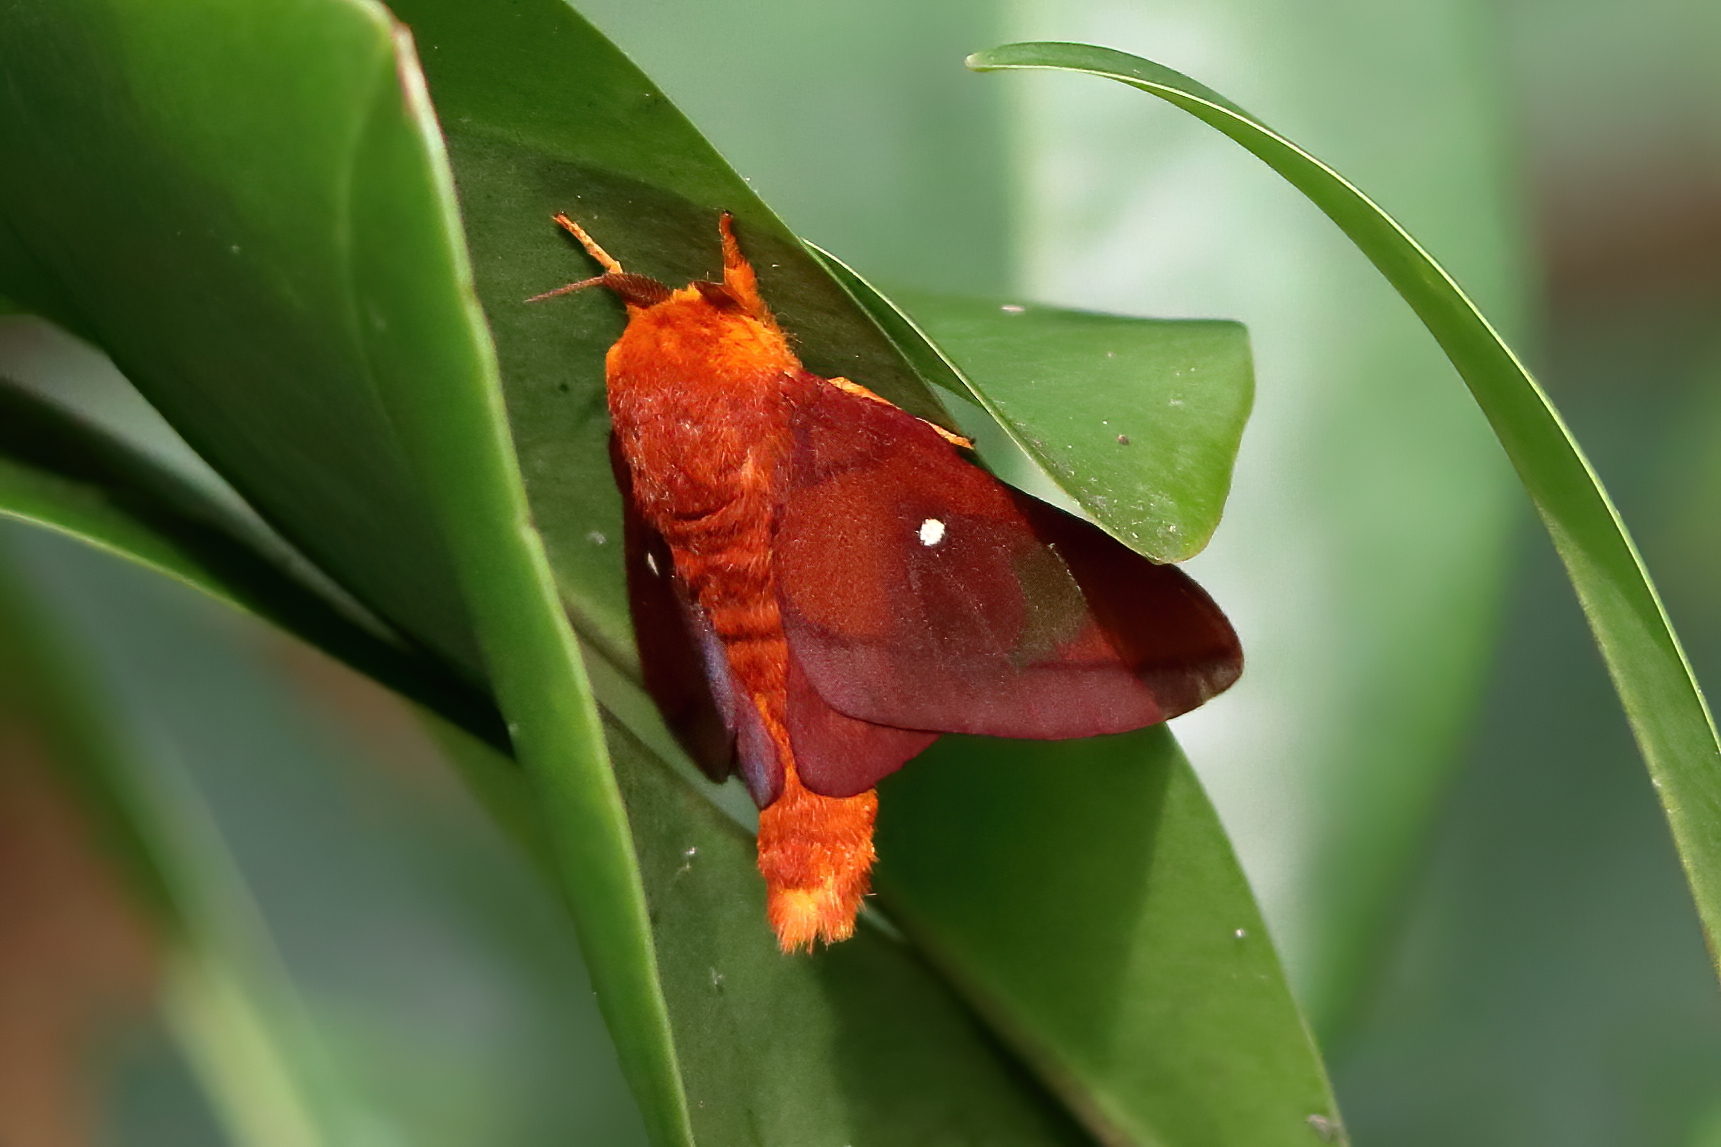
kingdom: Animalia
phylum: Arthropoda
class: Insecta
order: Lepidoptera
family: Saturniidae
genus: Anisota
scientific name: Anisota virginiensis
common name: Pink striped oakworm moth
